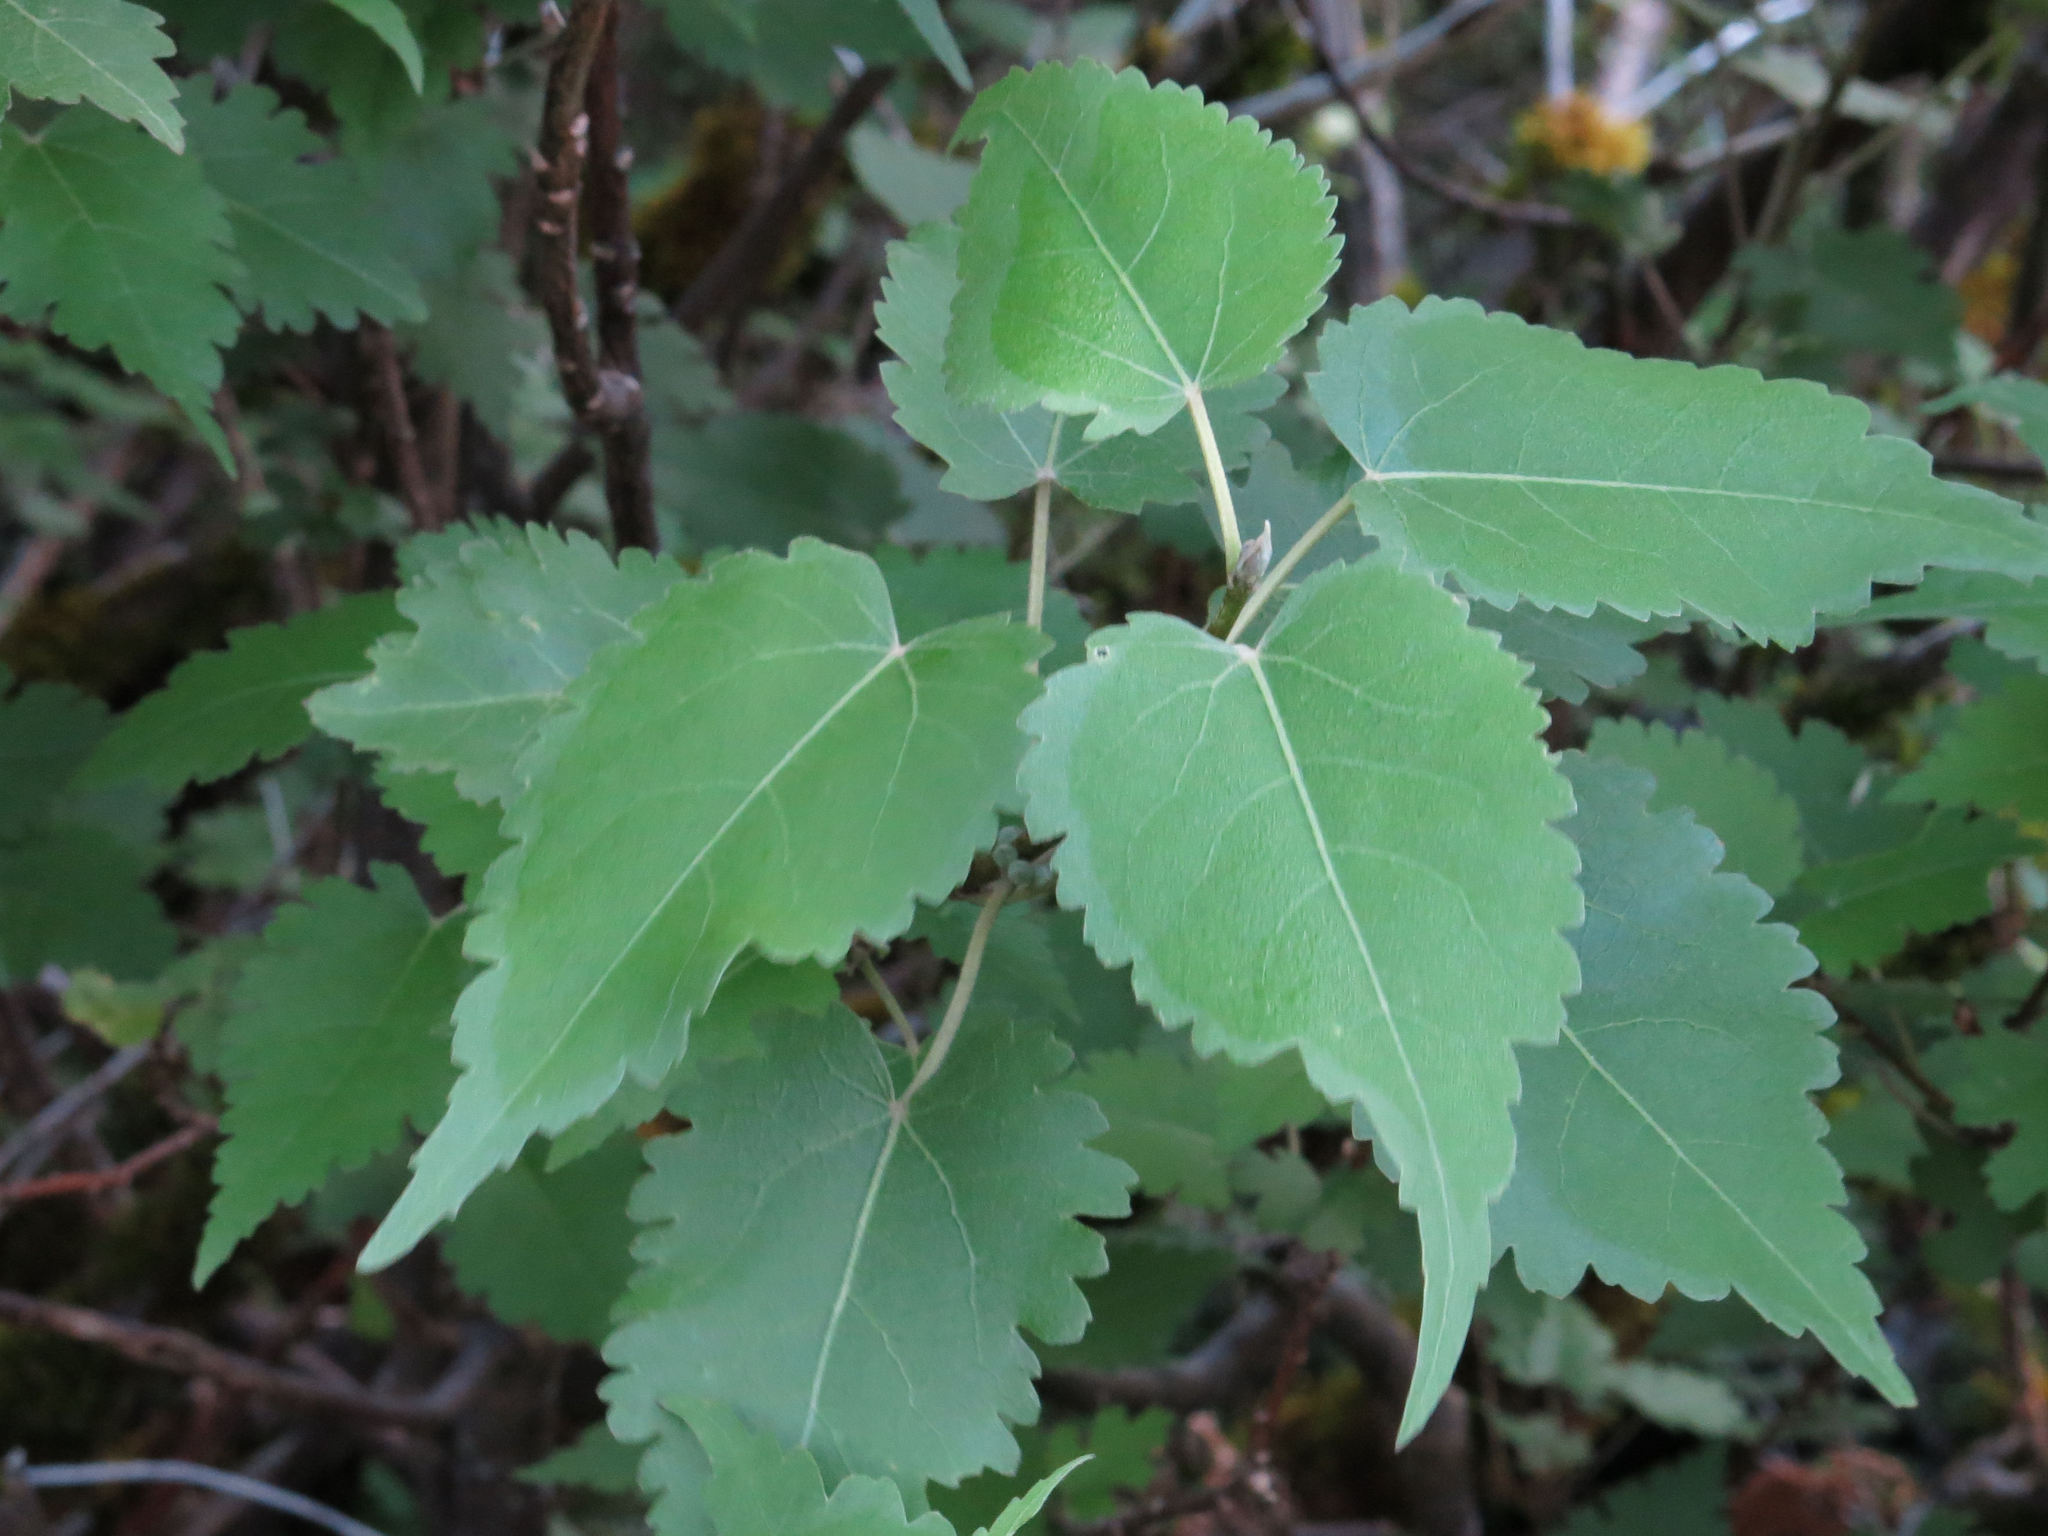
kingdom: Plantae
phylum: Tracheophyta
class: Magnoliopsida
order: Malvales
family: Malvaceae
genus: Hoheria
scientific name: Hoheria lyallii
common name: Lacebark
